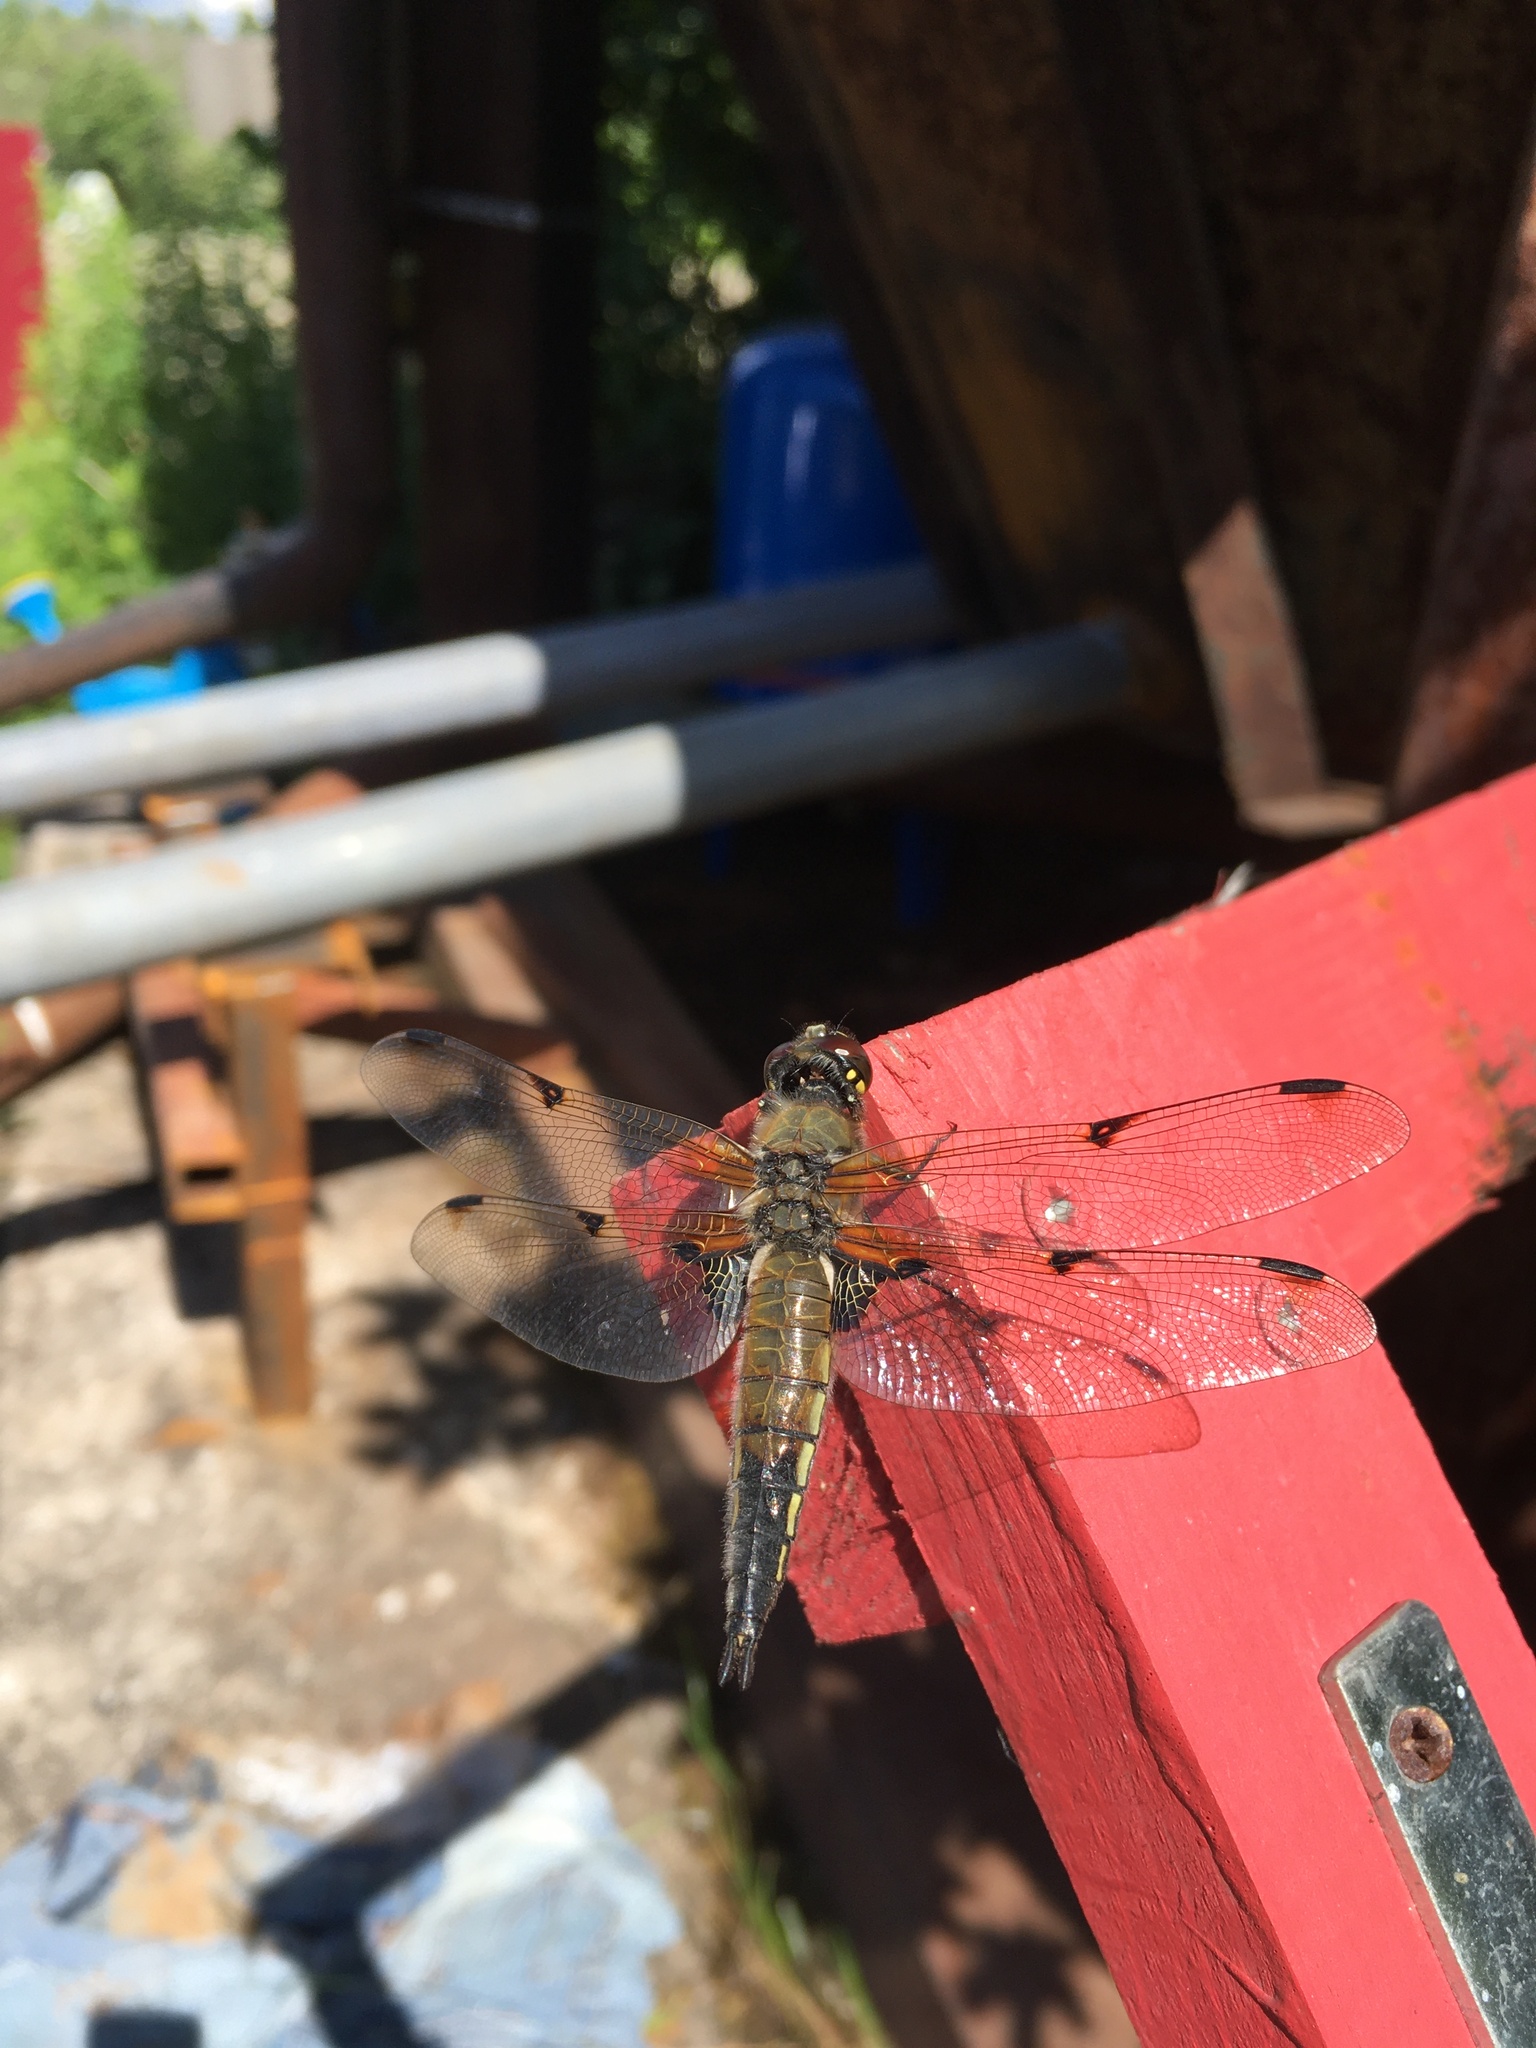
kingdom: Animalia
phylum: Arthropoda
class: Insecta
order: Odonata
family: Libellulidae
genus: Libellula
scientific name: Libellula quadrimaculata
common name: Four-spotted chaser
